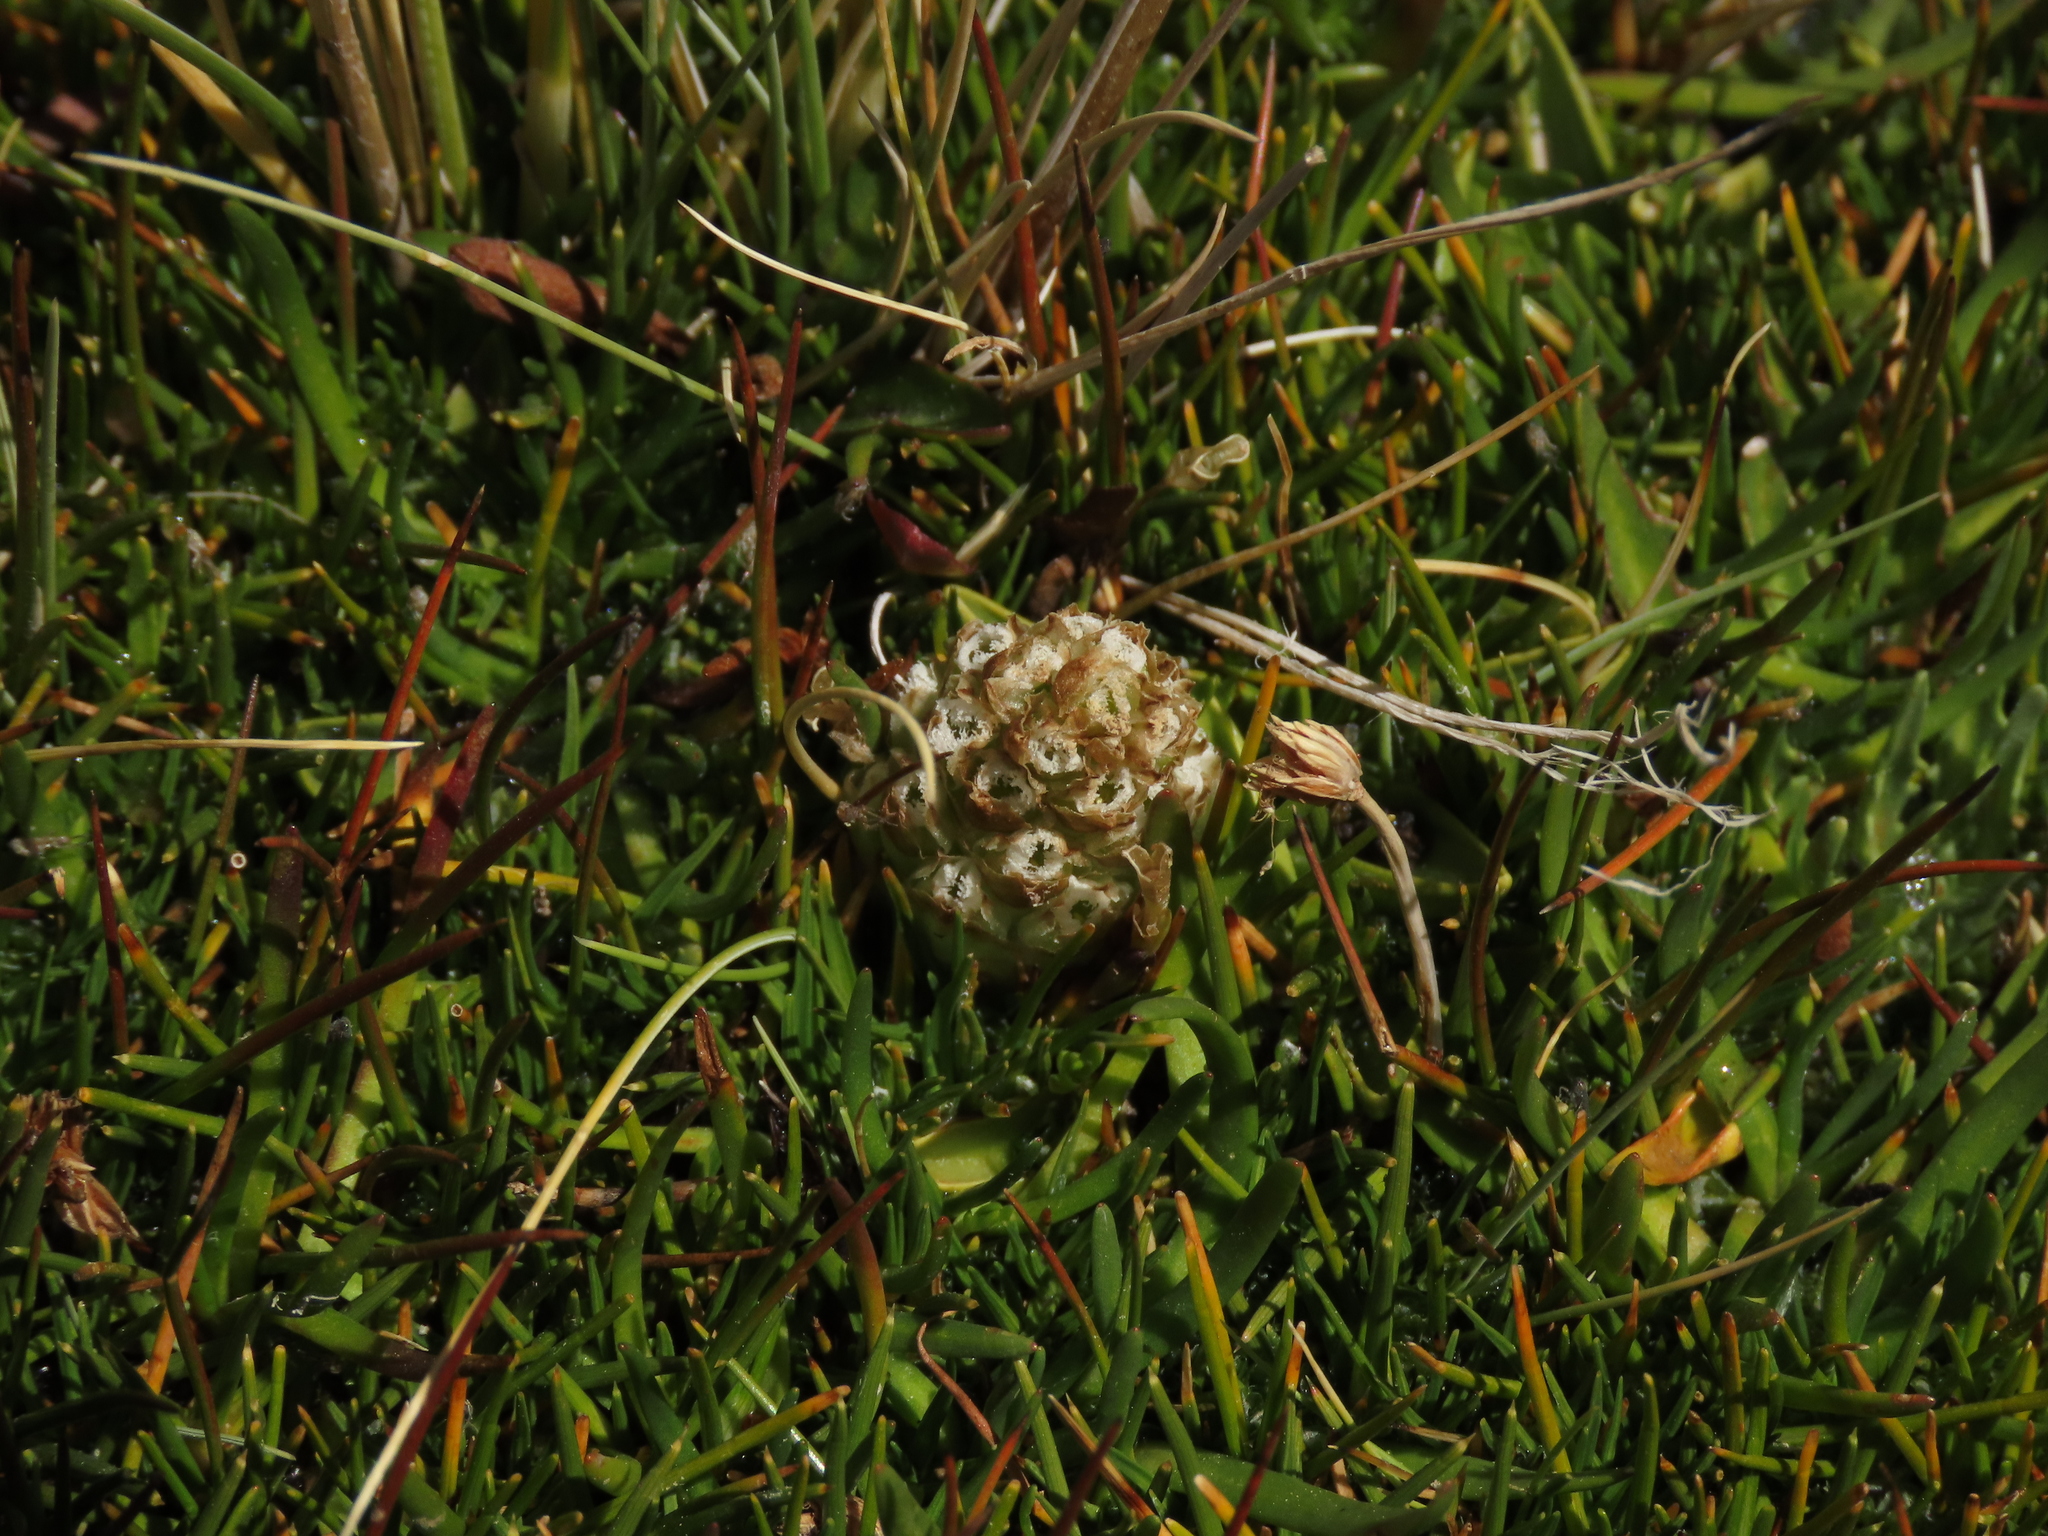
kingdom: Plantae
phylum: Tracheophyta
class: Liliopsida
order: Asparagales
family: Orchidaceae
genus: Myrosmodes
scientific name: Myrosmodes nervosa
